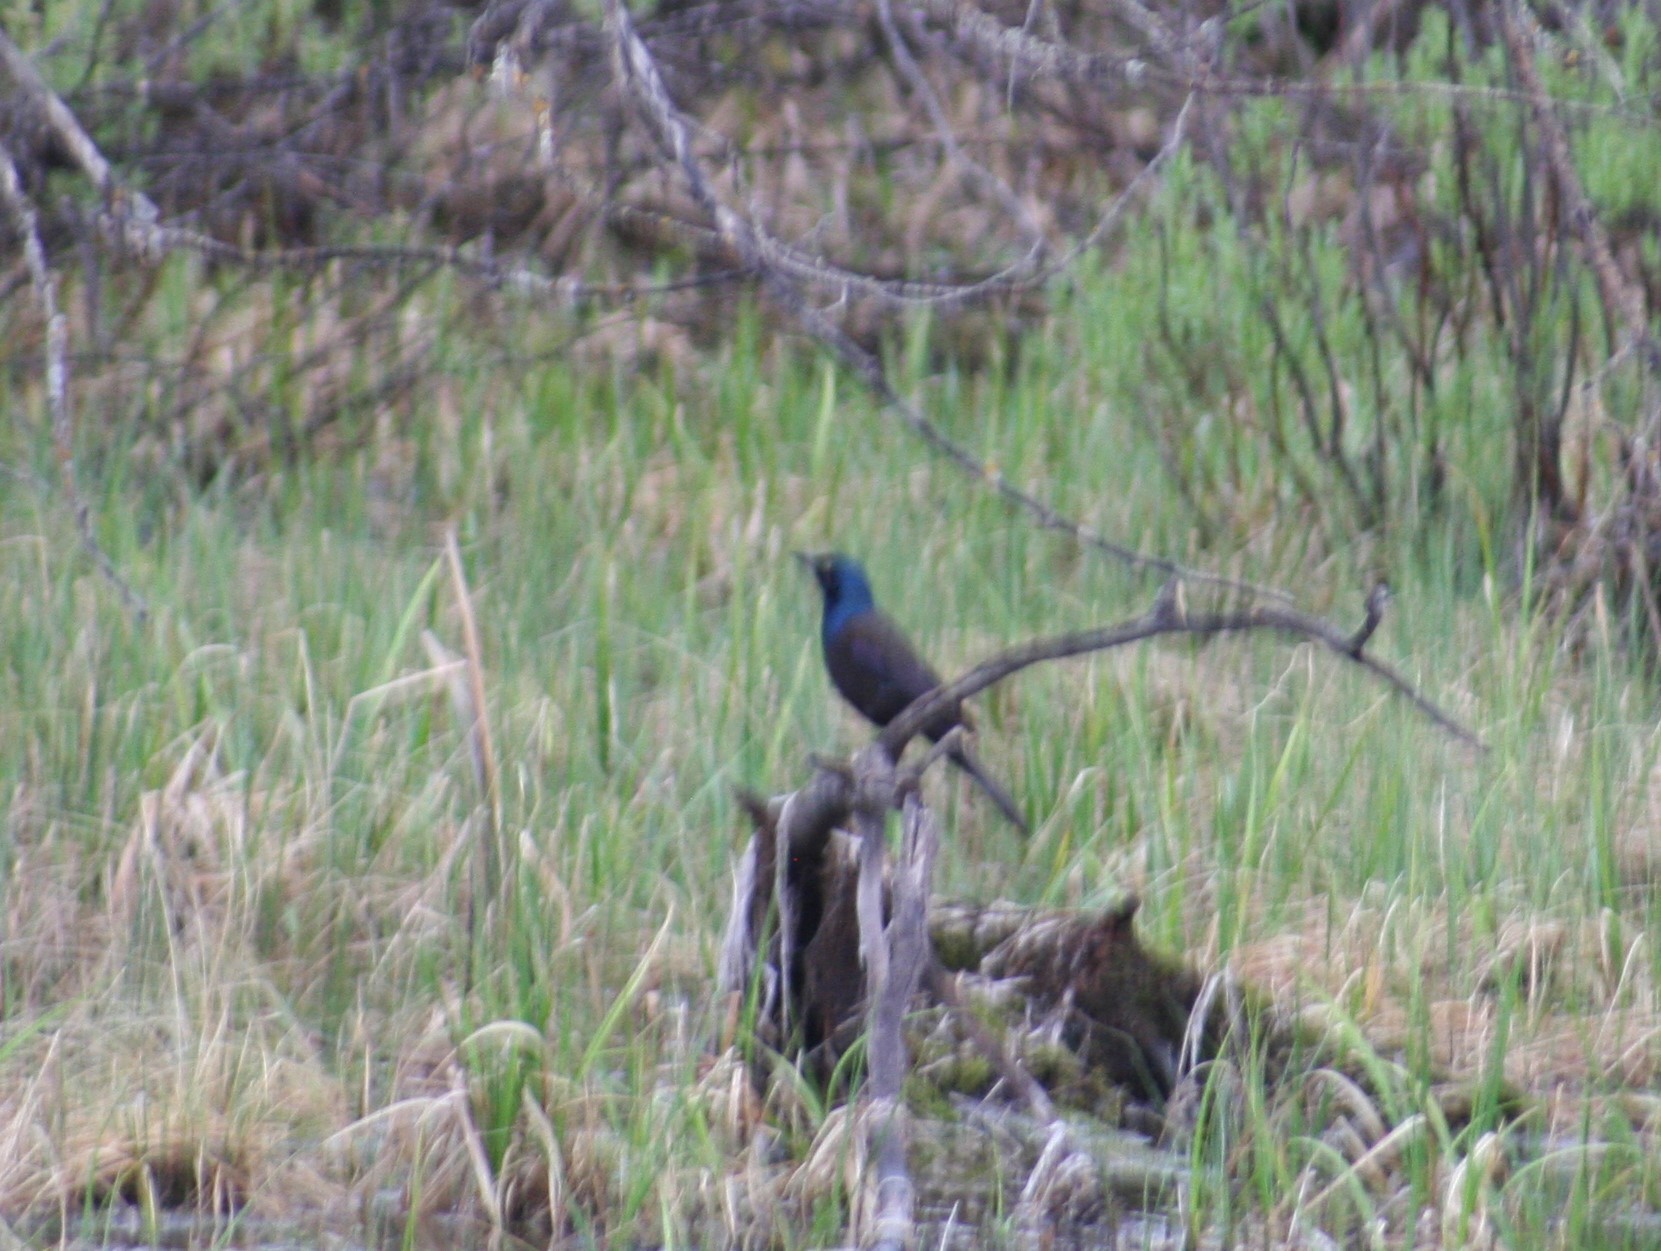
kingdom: Animalia
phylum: Chordata
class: Aves
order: Passeriformes
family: Icteridae
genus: Quiscalus
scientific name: Quiscalus quiscula
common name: Common grackle
